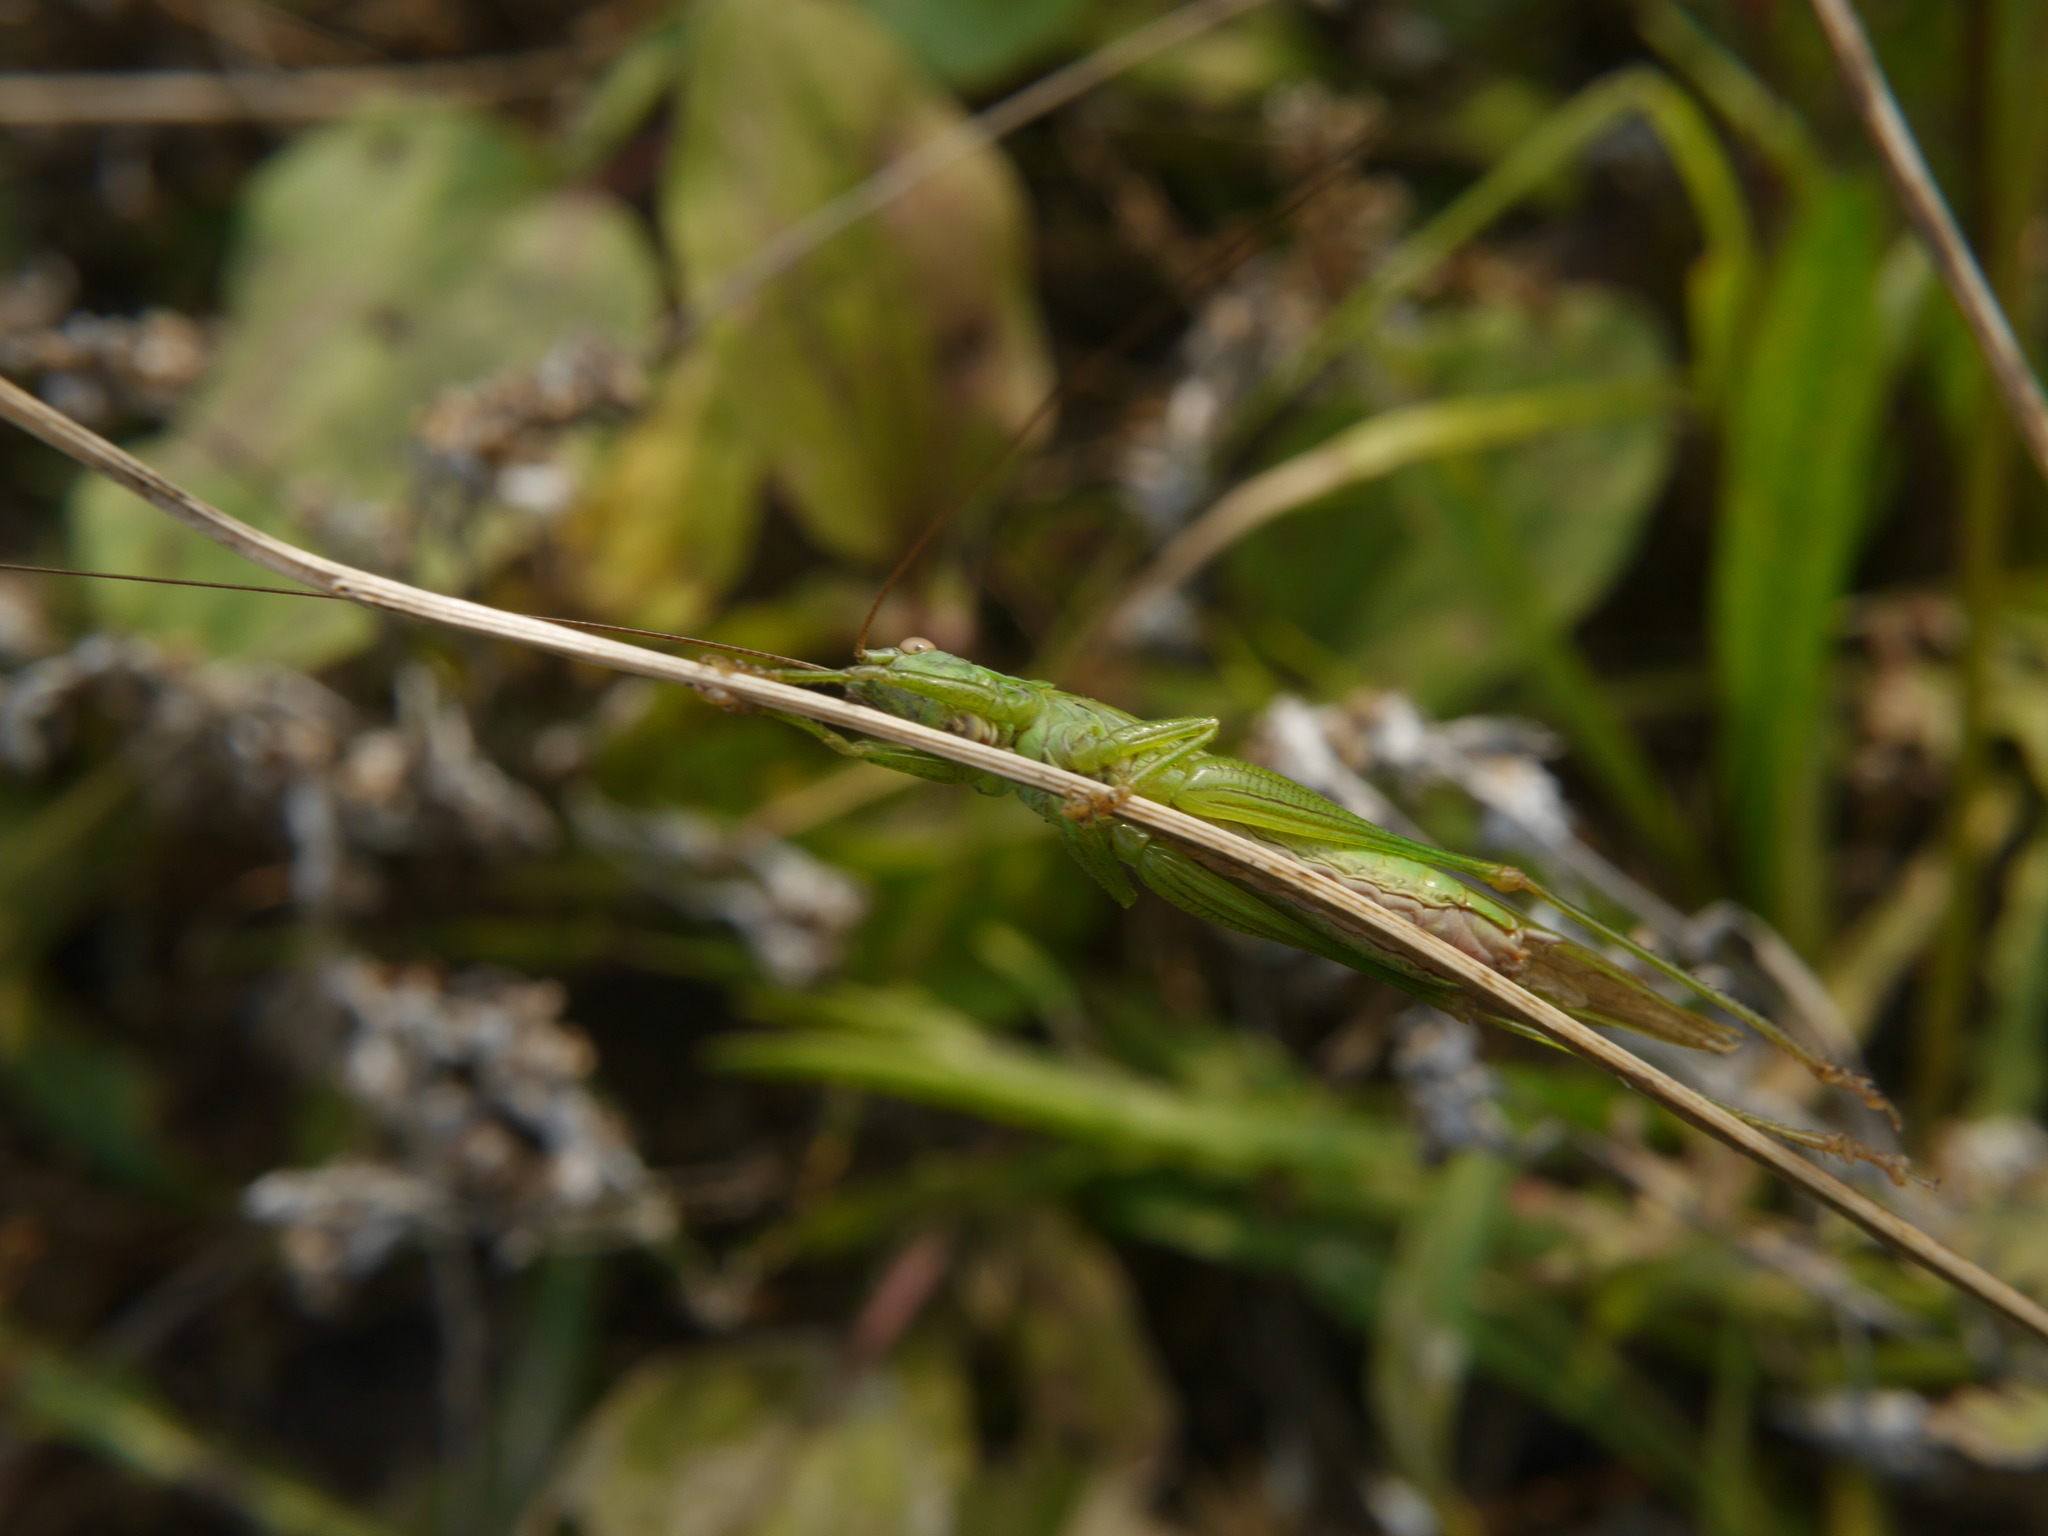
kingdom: Animalia
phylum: Arthropoda
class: Insecta
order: Orthoptera
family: Tettigoniidae
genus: Conocephalus
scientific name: Conocephalus fuscus
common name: Long-winged conehead
